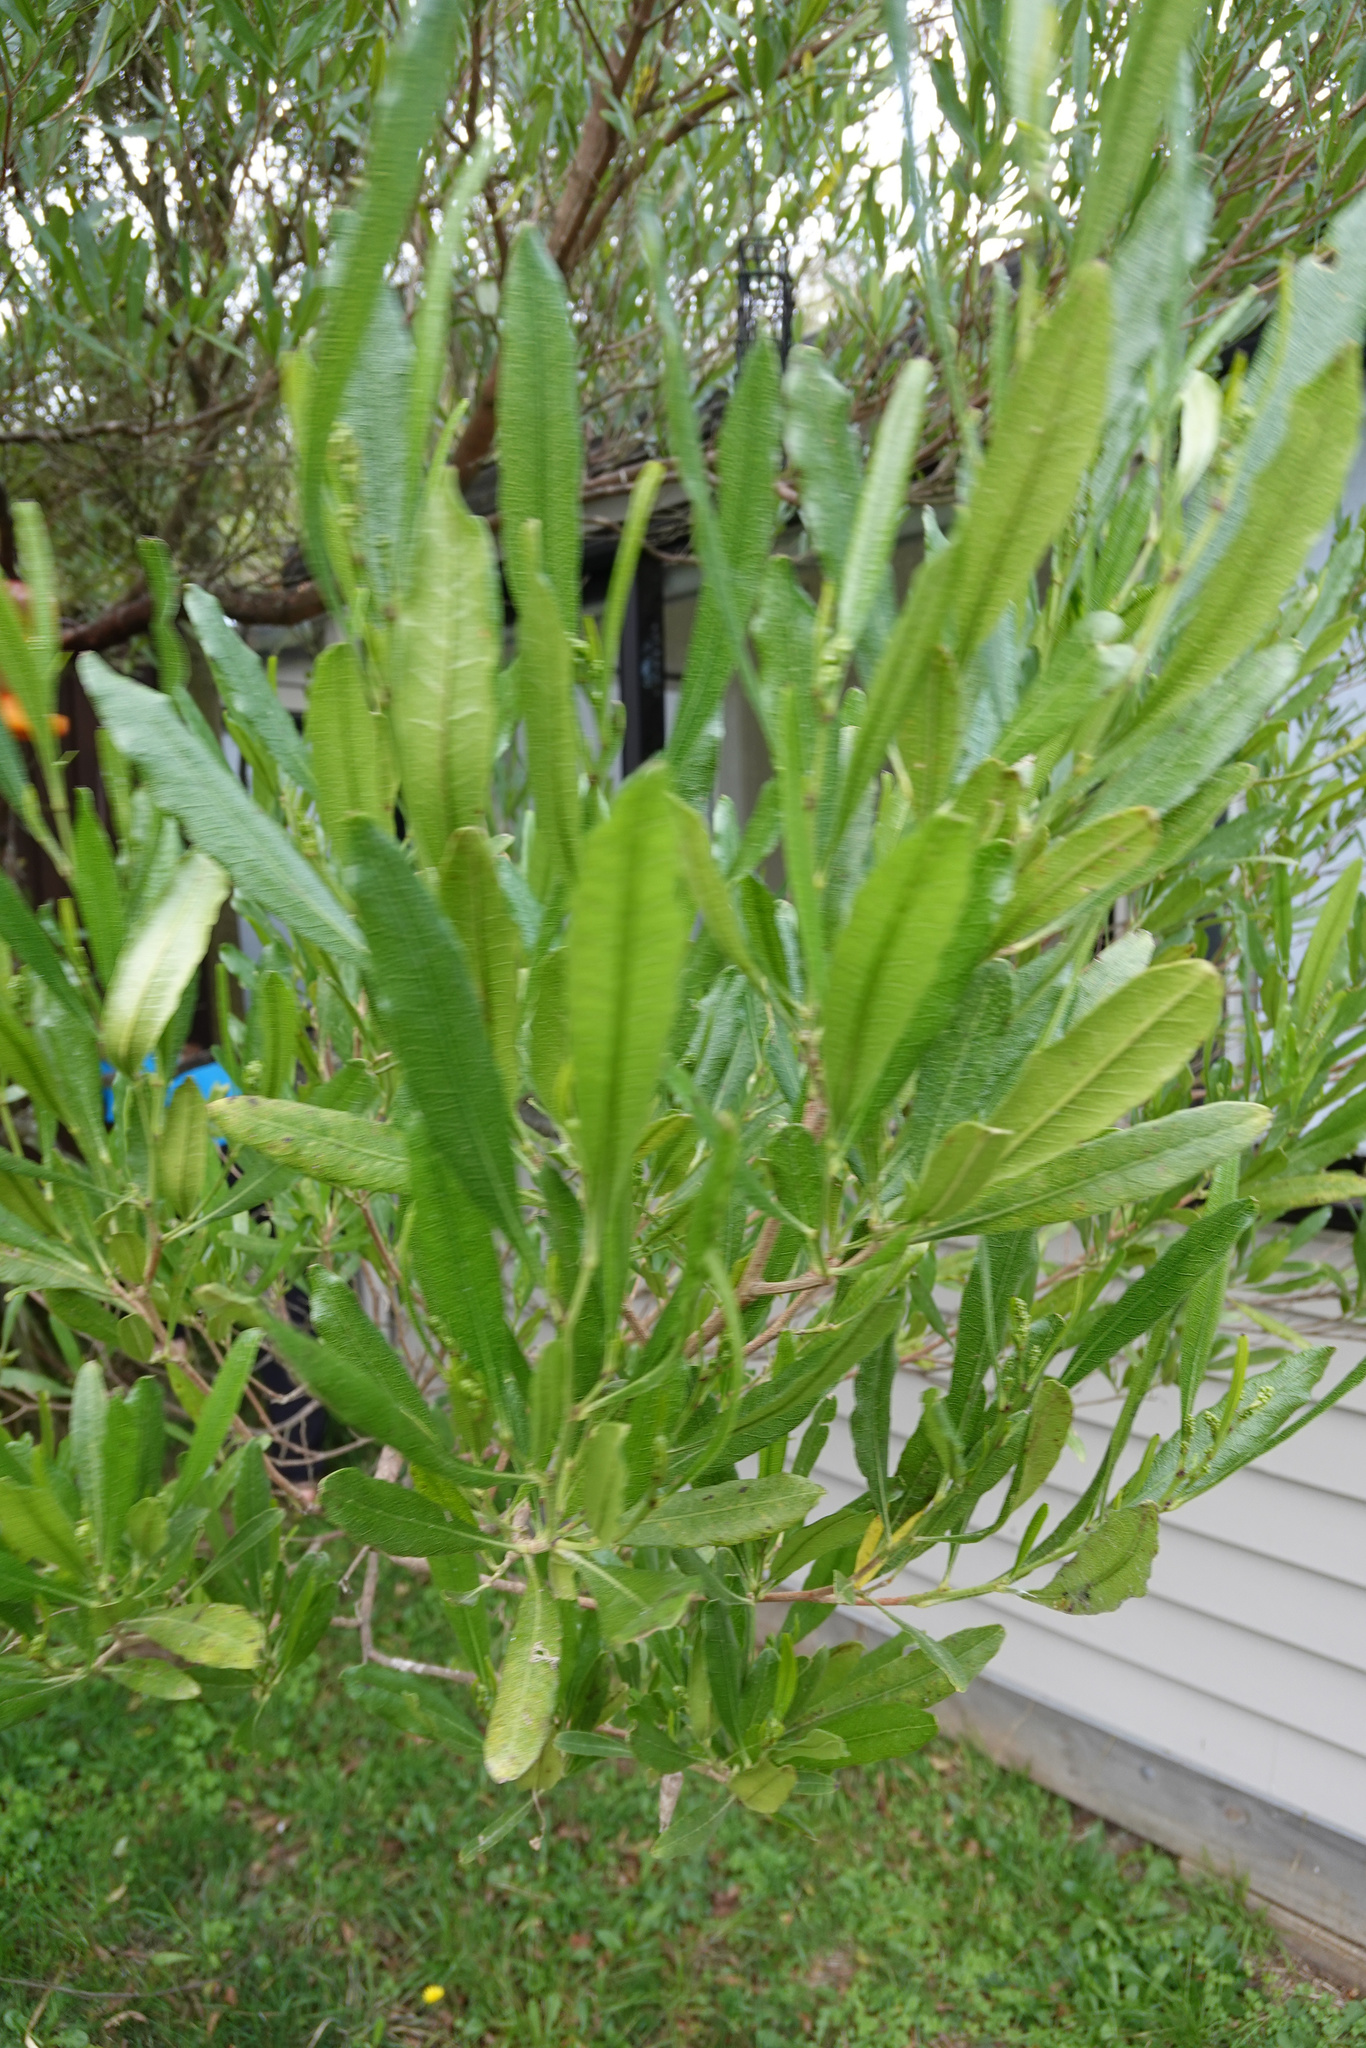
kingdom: Plantae
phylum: Tracheophyta
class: Magnoliopsida
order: Sapindales
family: Sapindaceae
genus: Dodonaea
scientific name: Dodonaea viscosa
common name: Hopbush
